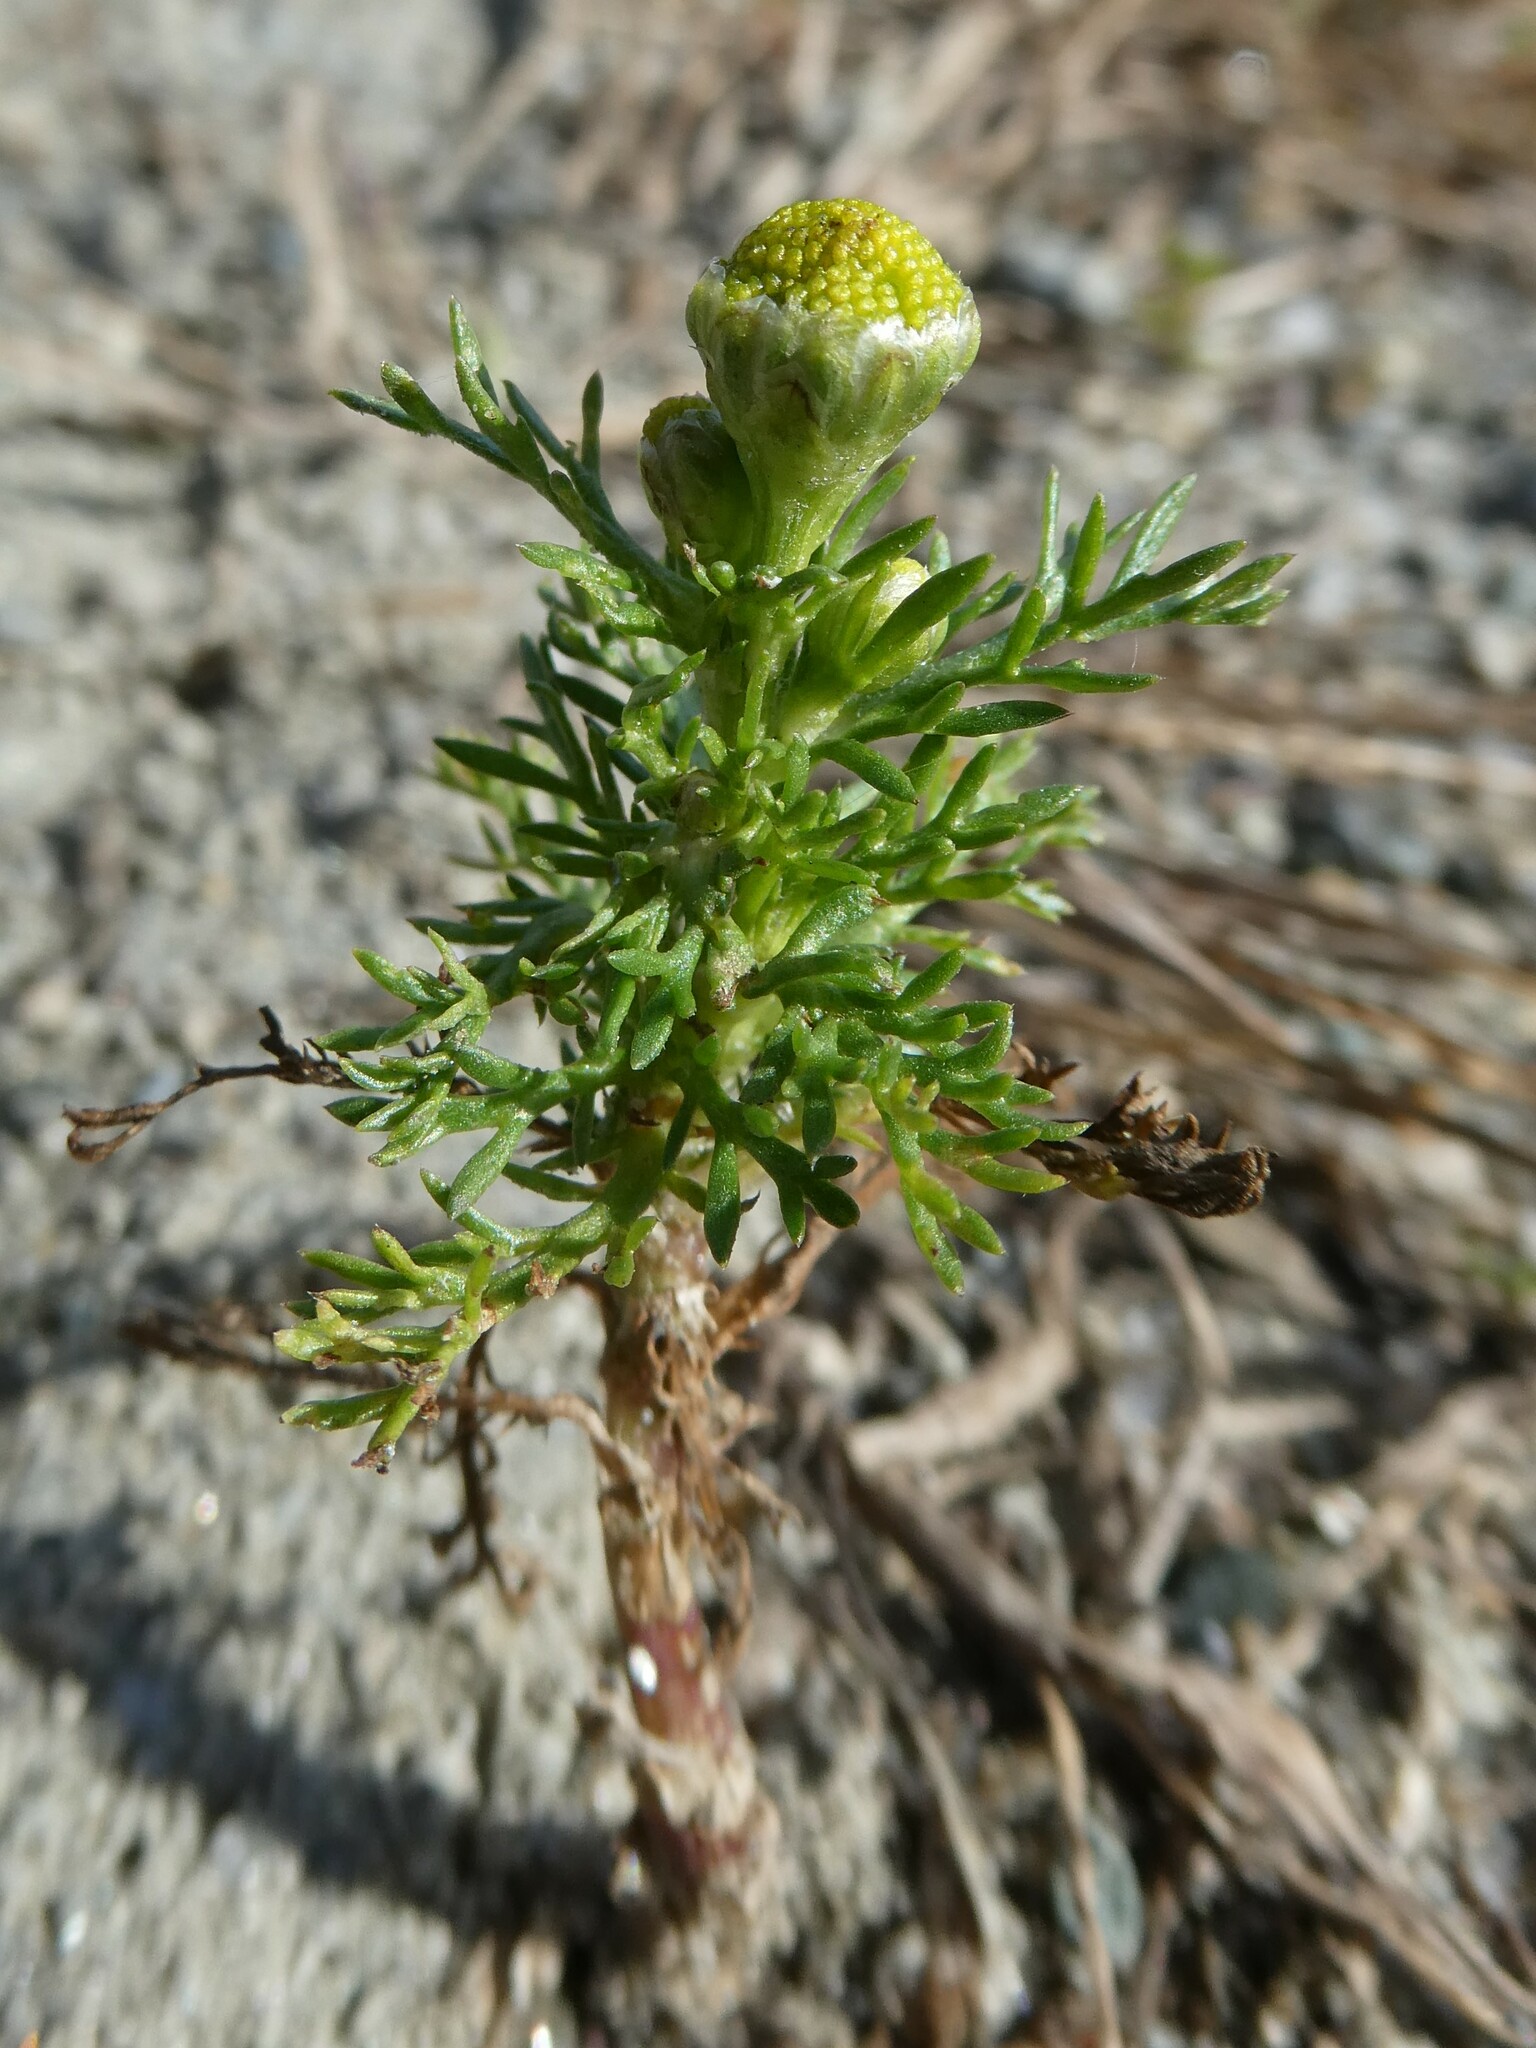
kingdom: Plantae
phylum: Tracheophyta
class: Magnoliopsida
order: Asterales
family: Asteraceae
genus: Matricaria
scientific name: Matricaria discoidea
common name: Disc mayweed
